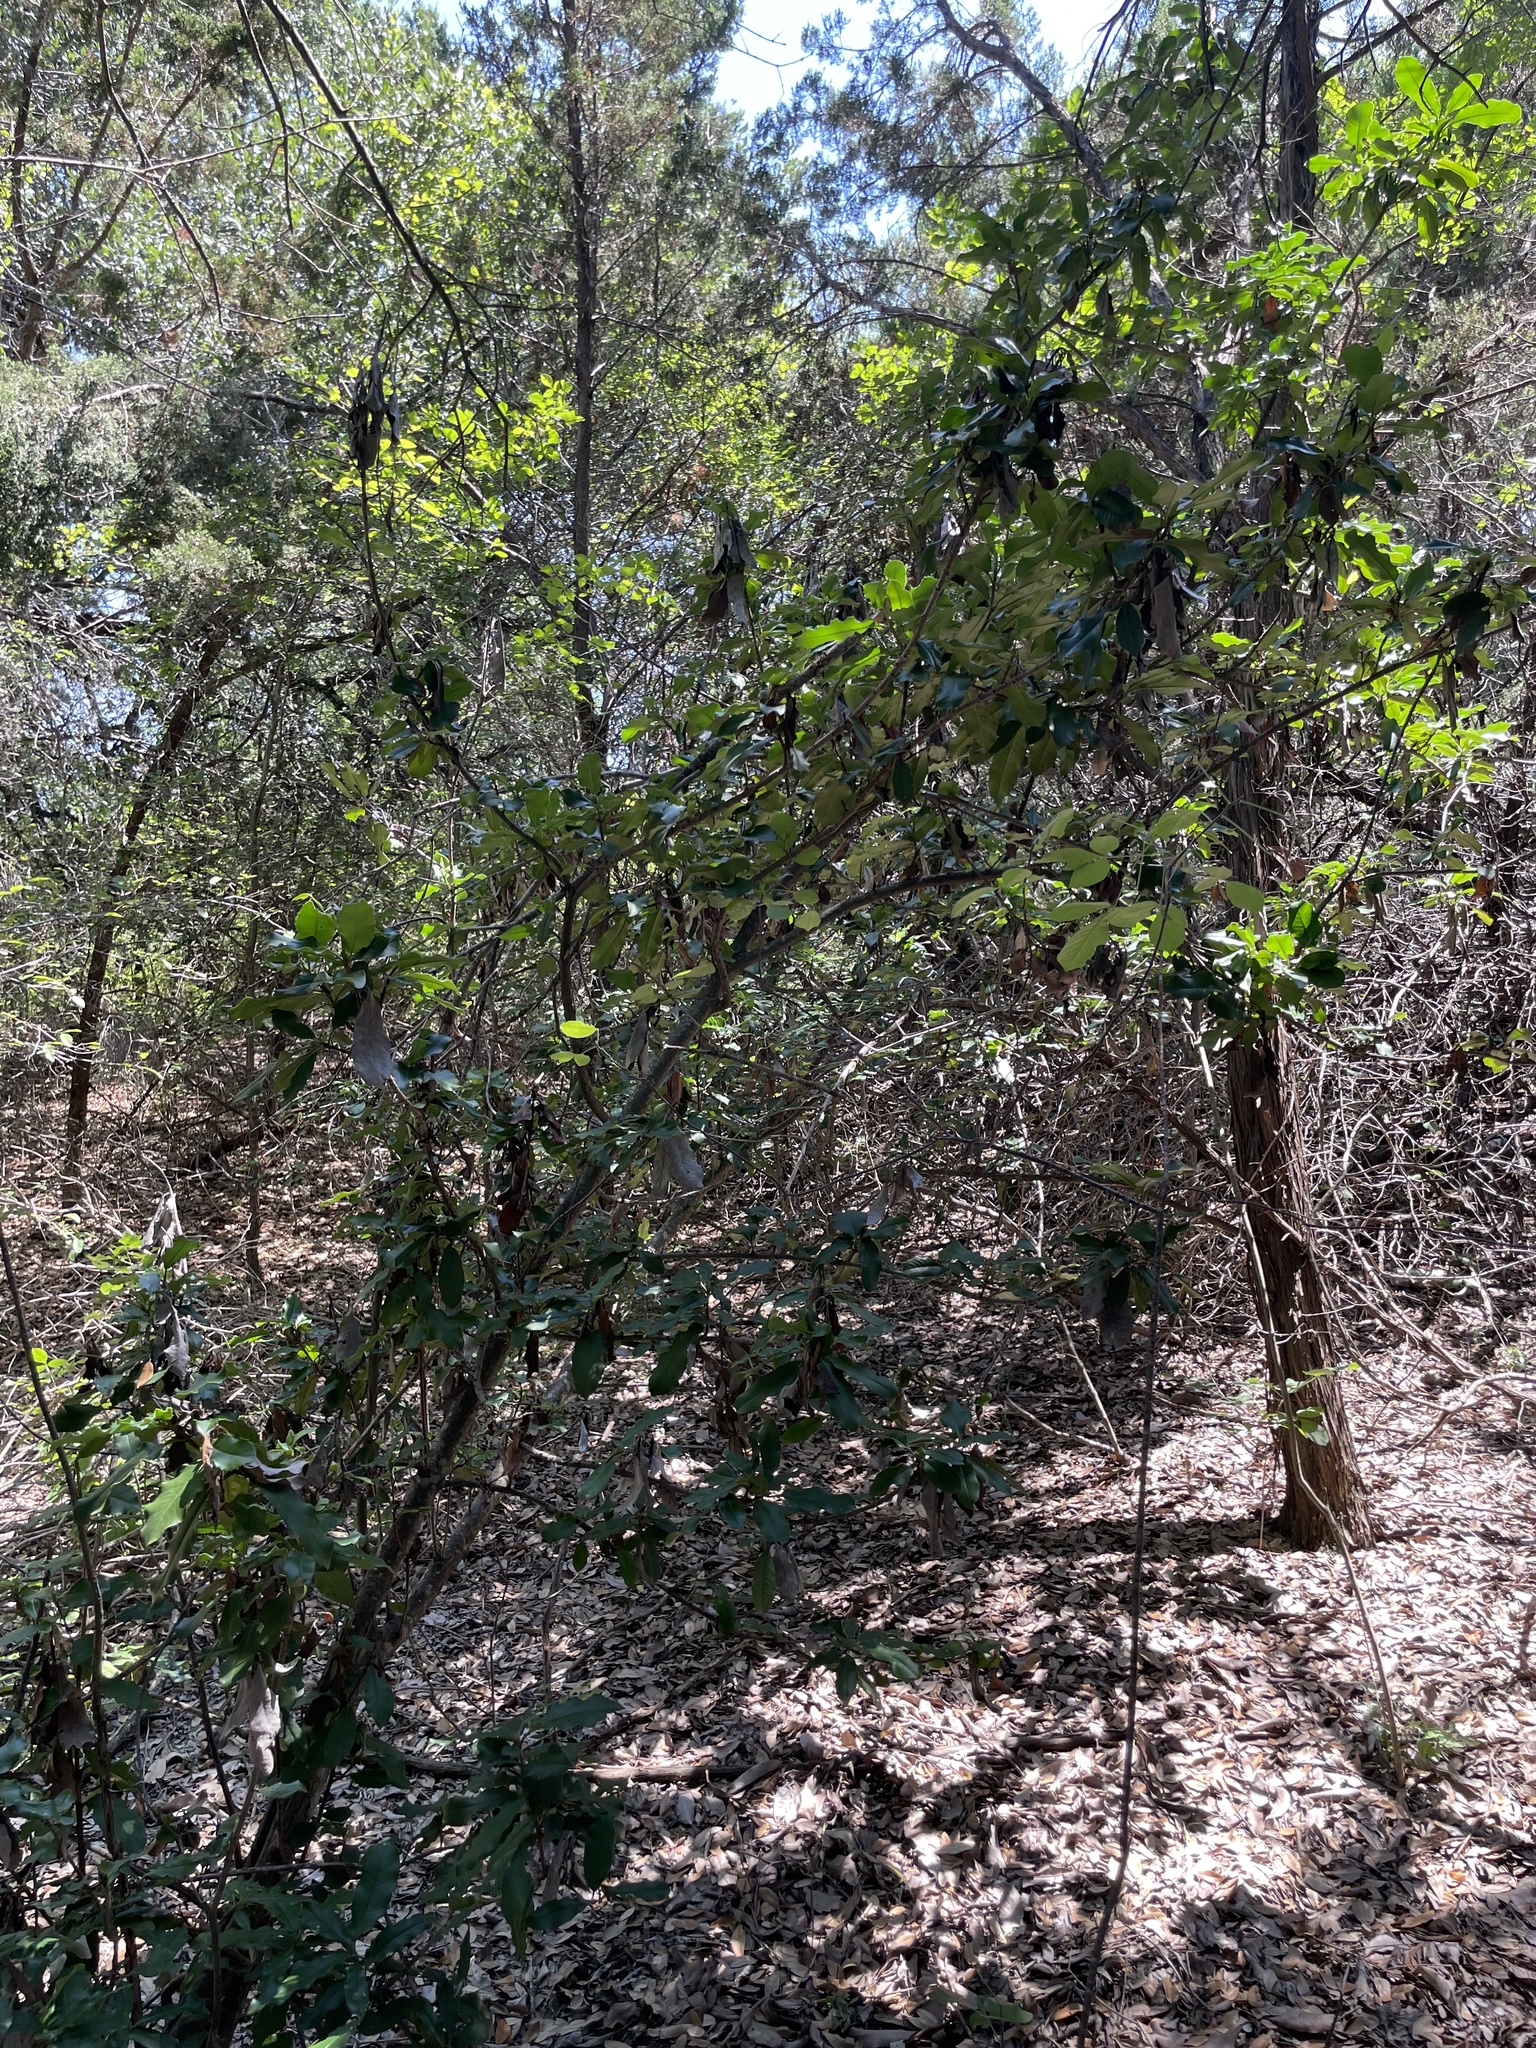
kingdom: Plantae
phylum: Tracheophyta
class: Magnoliopsida
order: Rosales
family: Rosaceae
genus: Photinia
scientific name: Photinia serratifolia
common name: Taiwanese photinia
